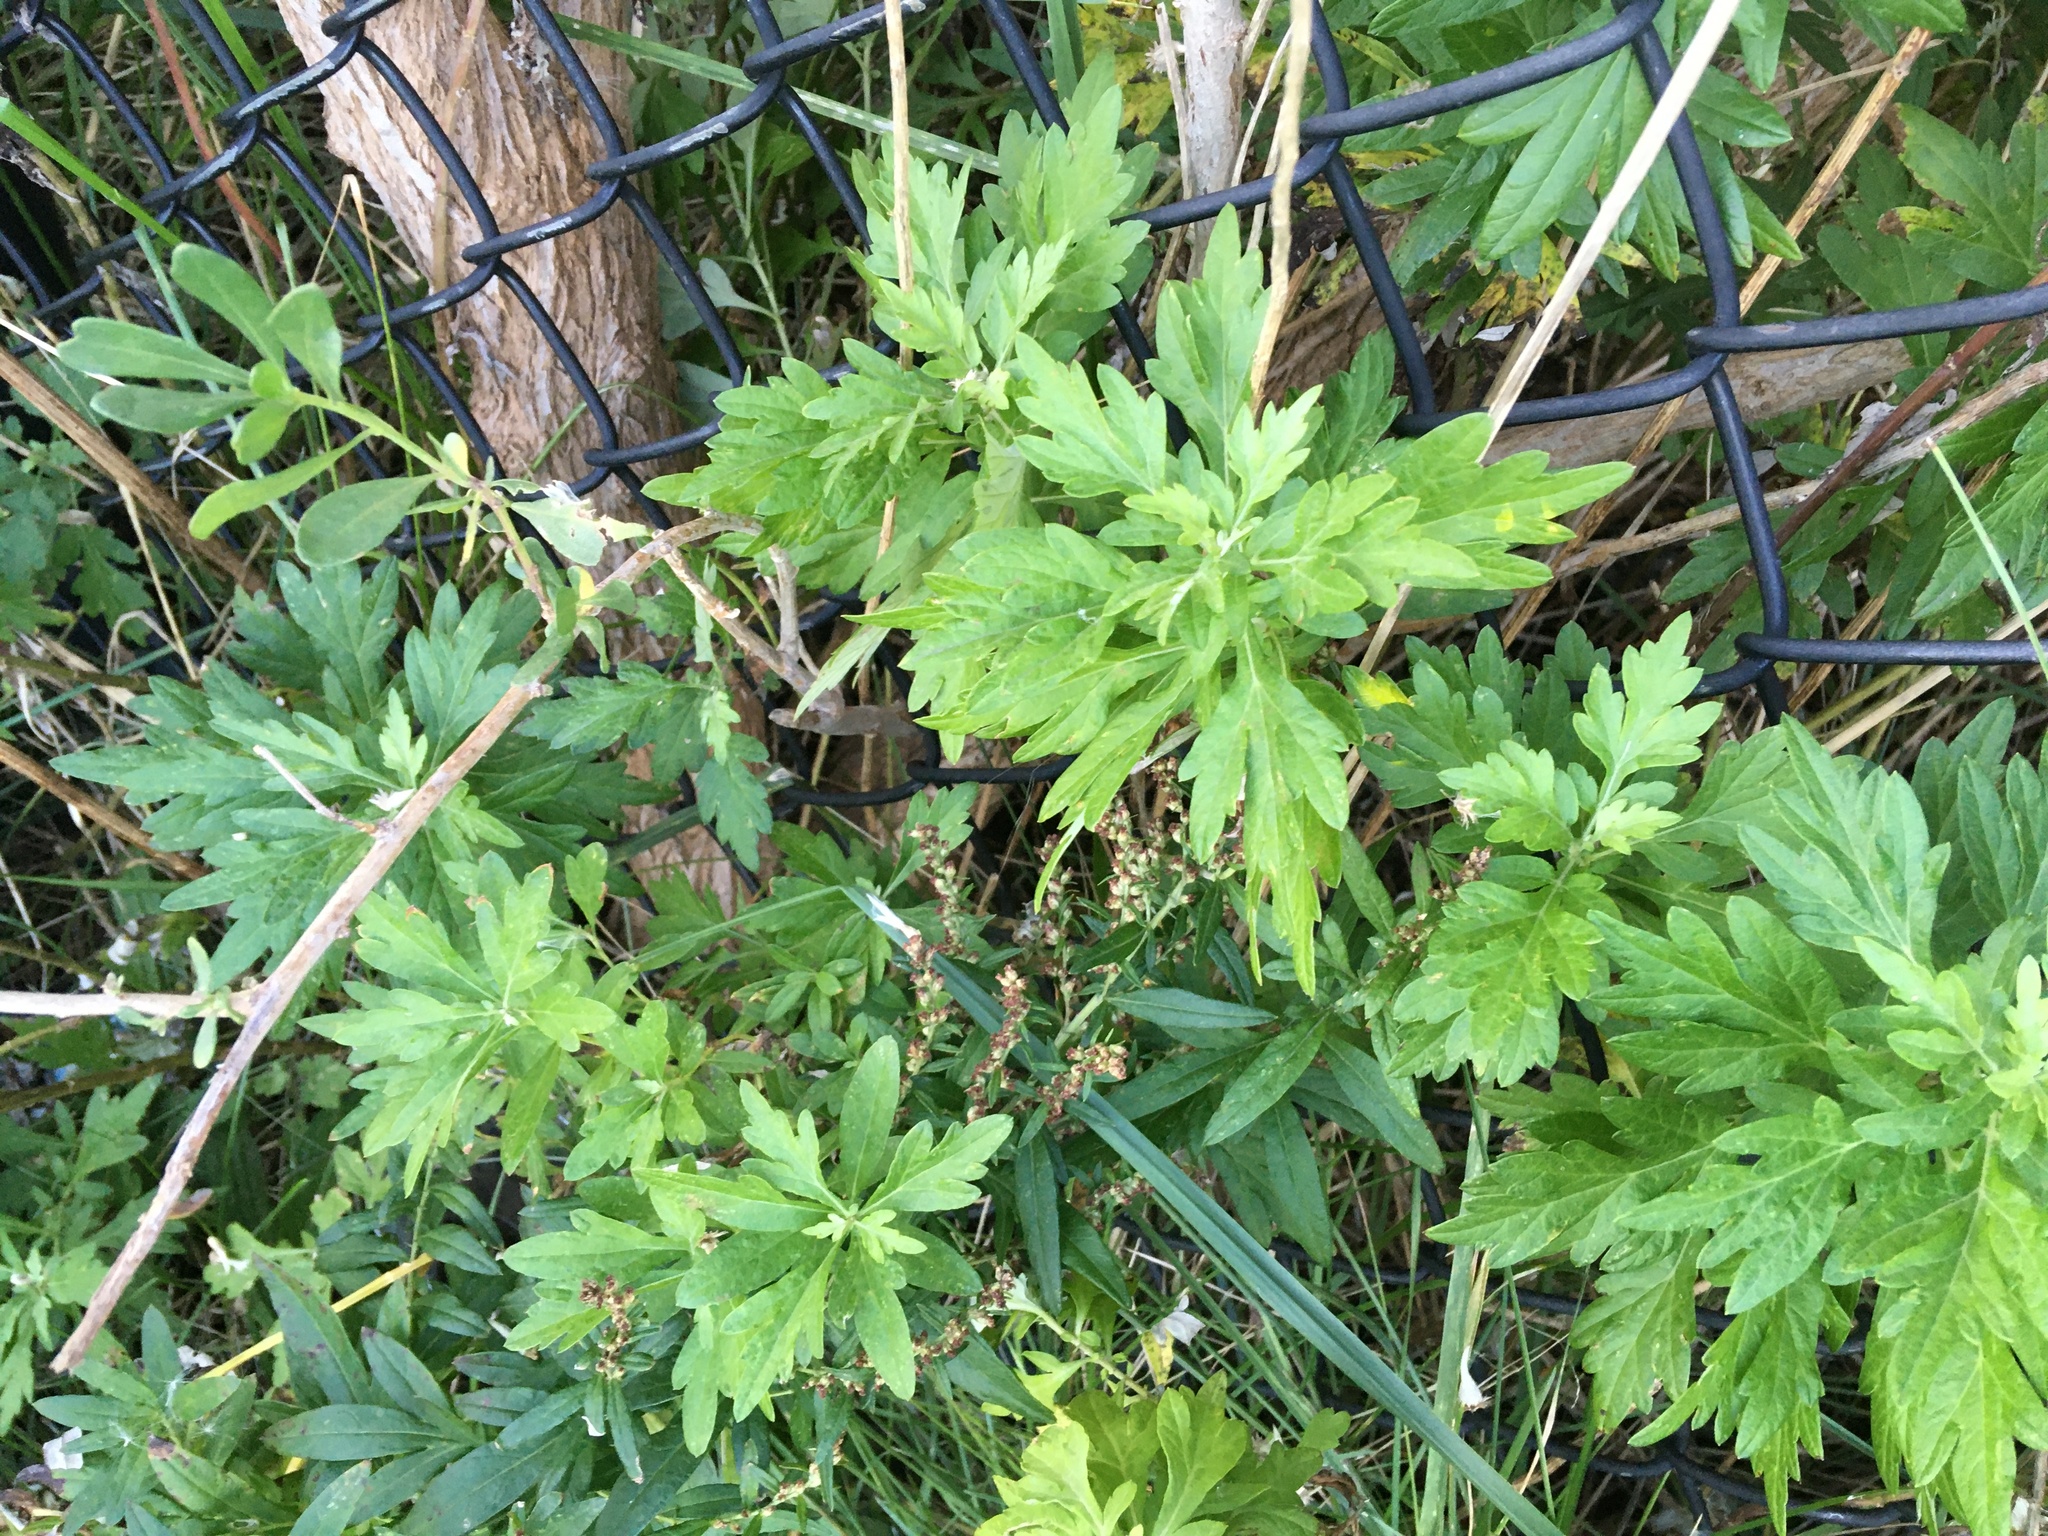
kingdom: Plantae
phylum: Tracheophyta
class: Magnoliopsida
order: Asterales
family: Asteraceae
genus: Artemisia
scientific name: Artemisia vulgaris
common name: Mugwort
